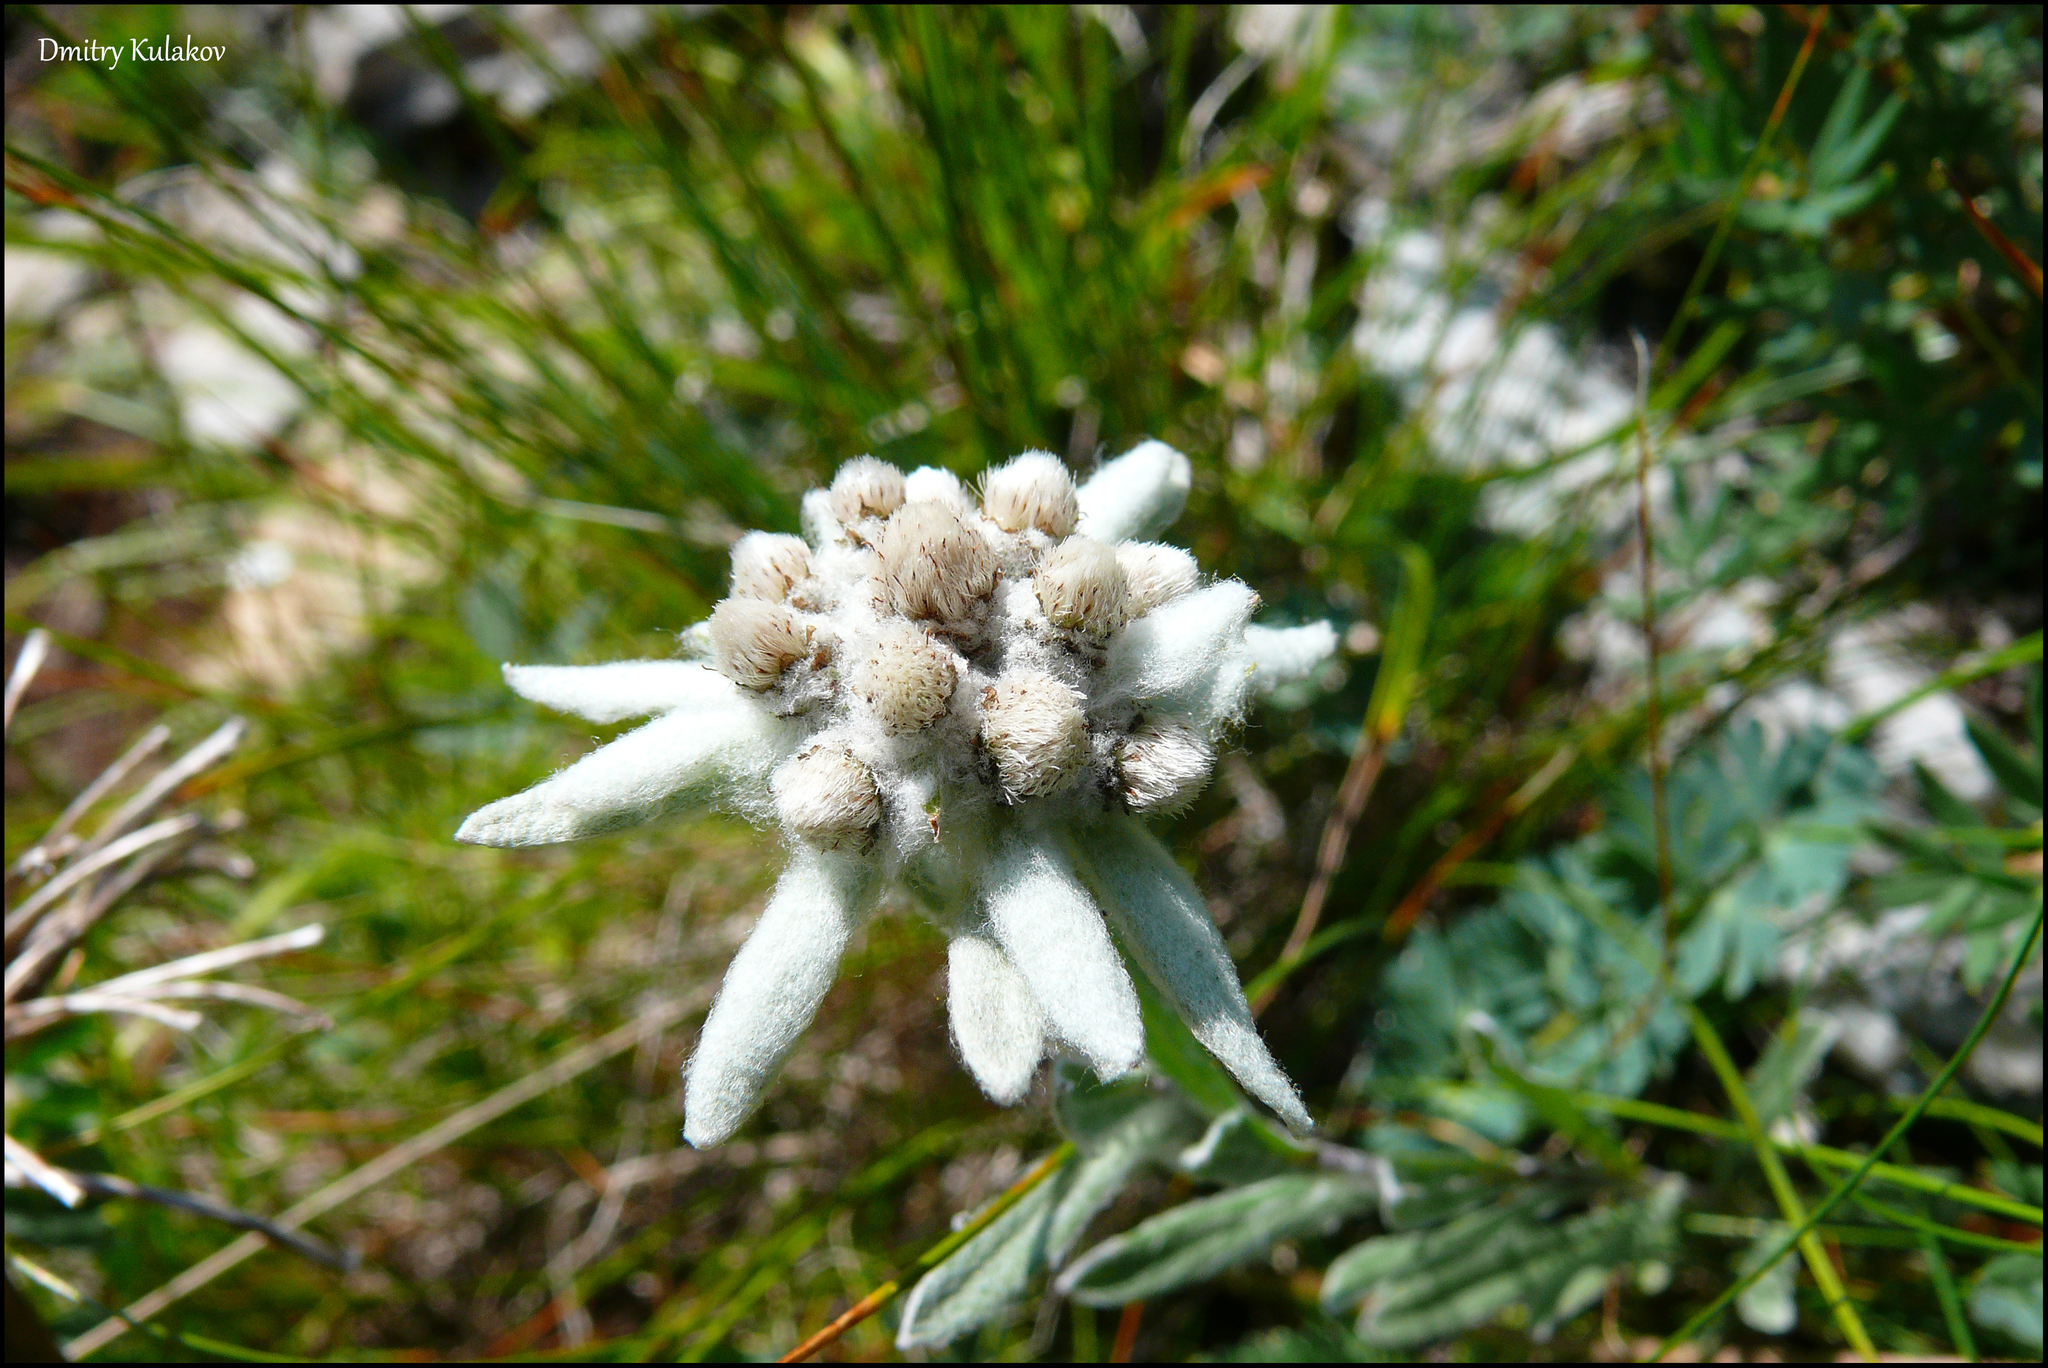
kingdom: Plantae
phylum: Tracheophyta
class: Magnoliopsida
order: Asterales
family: Asteraceae
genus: Leontopodium
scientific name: Leontopodium conglobatum
